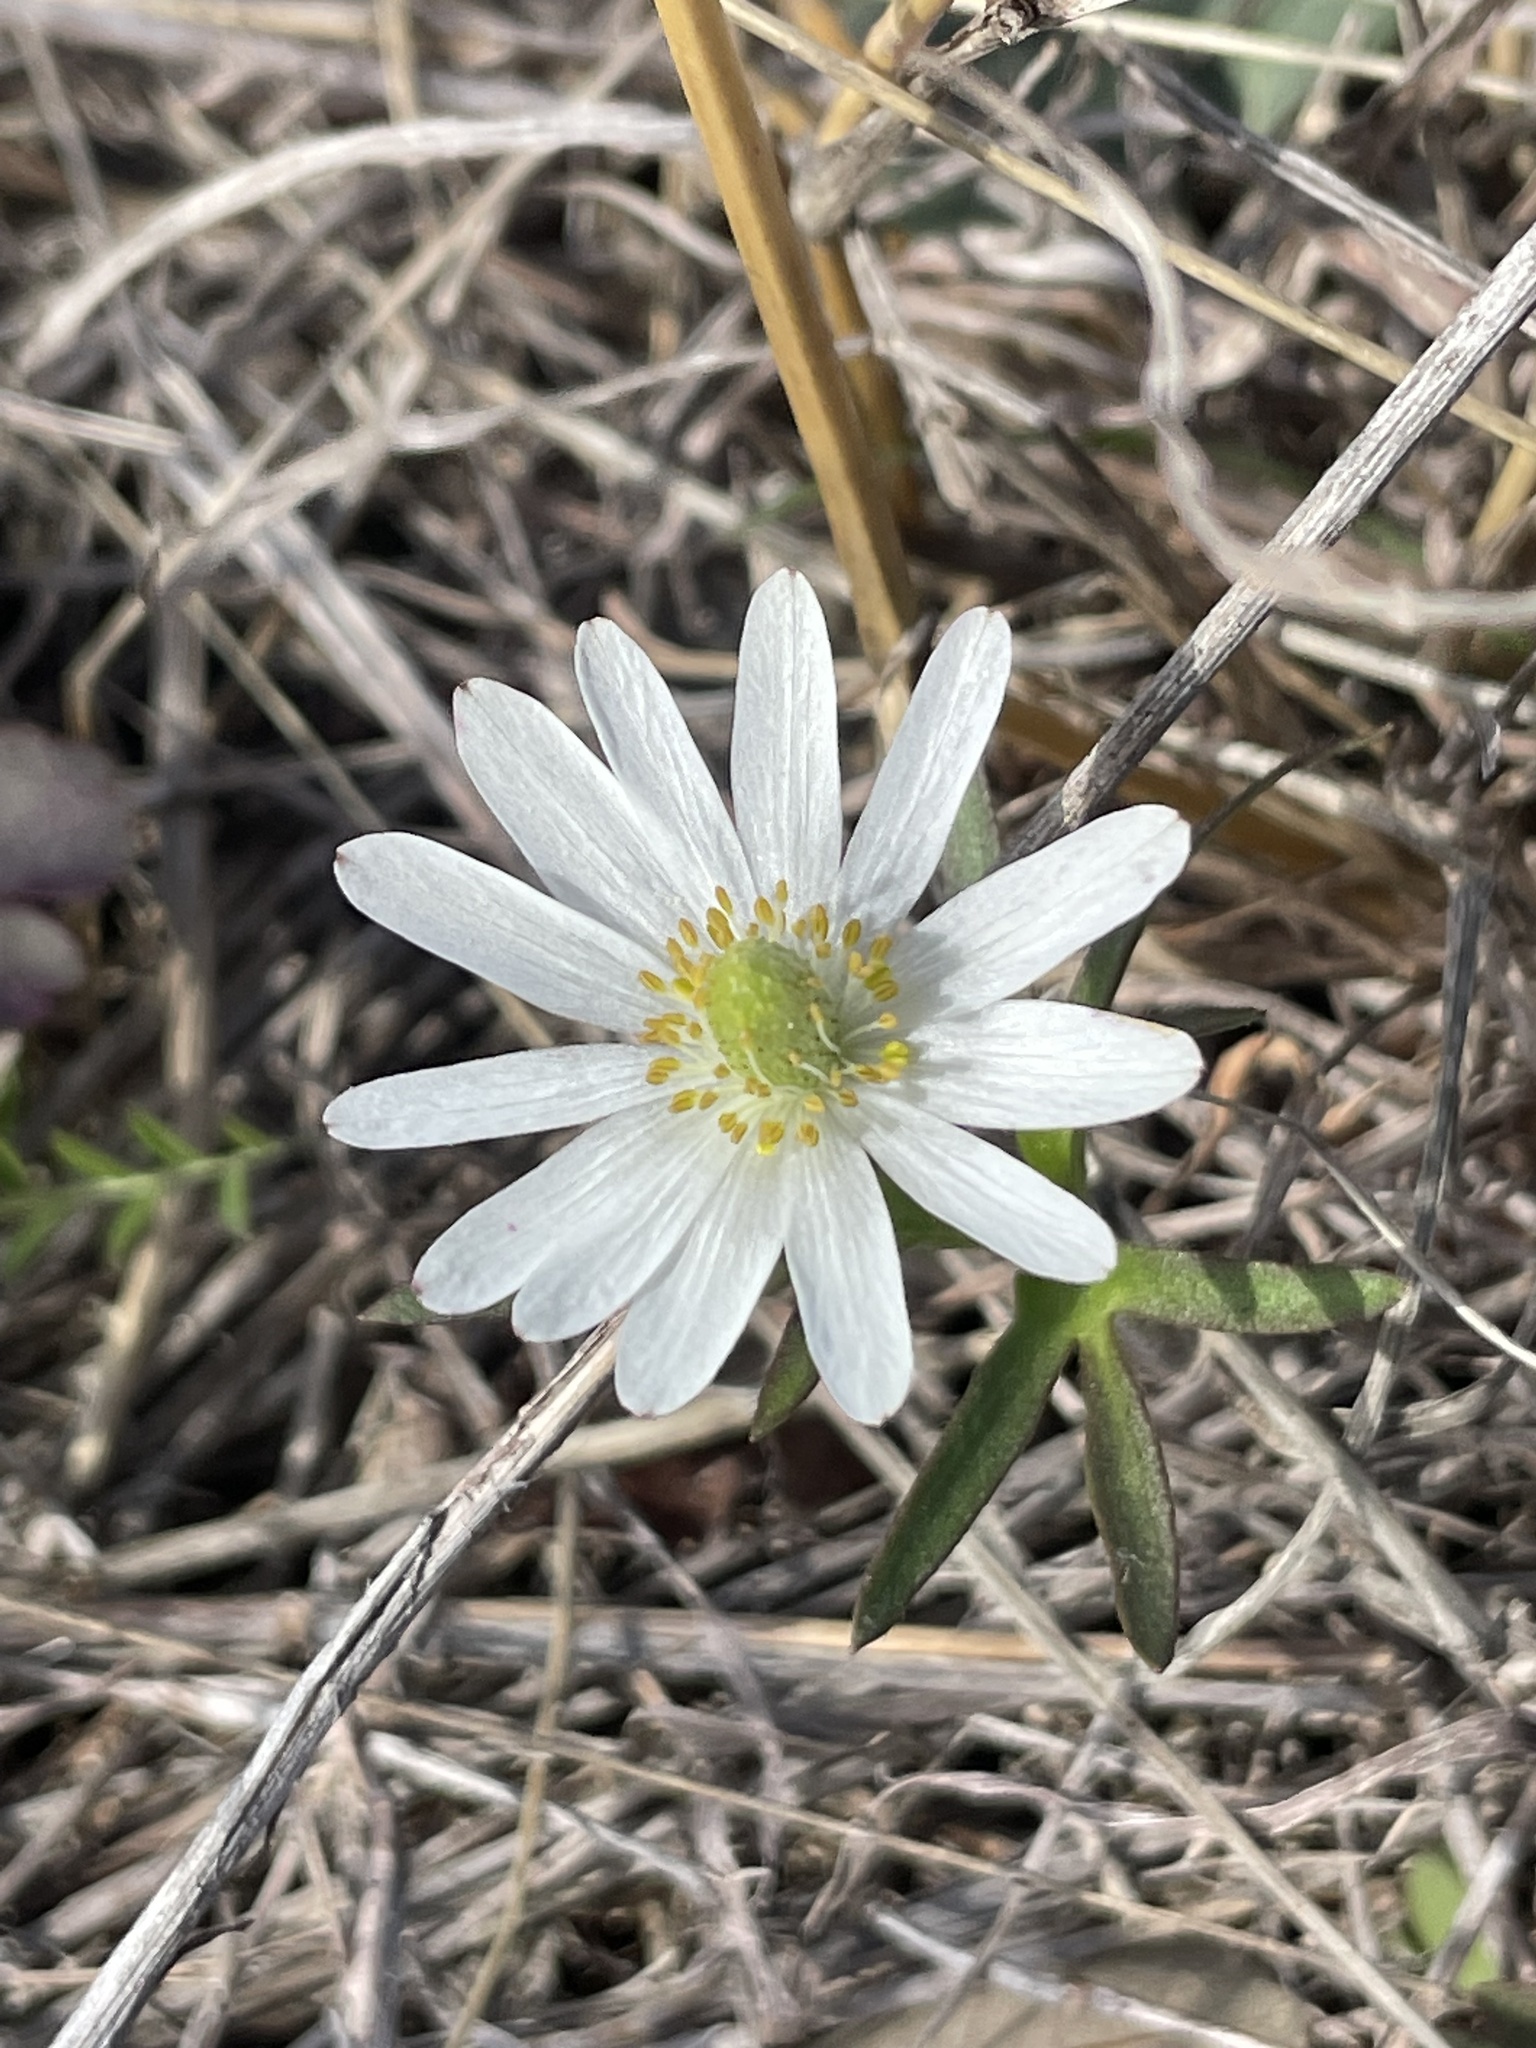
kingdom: Plantae
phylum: Tracheophyta
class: Magnoliopsida
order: Ranunculales
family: Ranunculaceae
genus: Anemone
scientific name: Anemone berlandieri
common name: Ten-petal anemone
